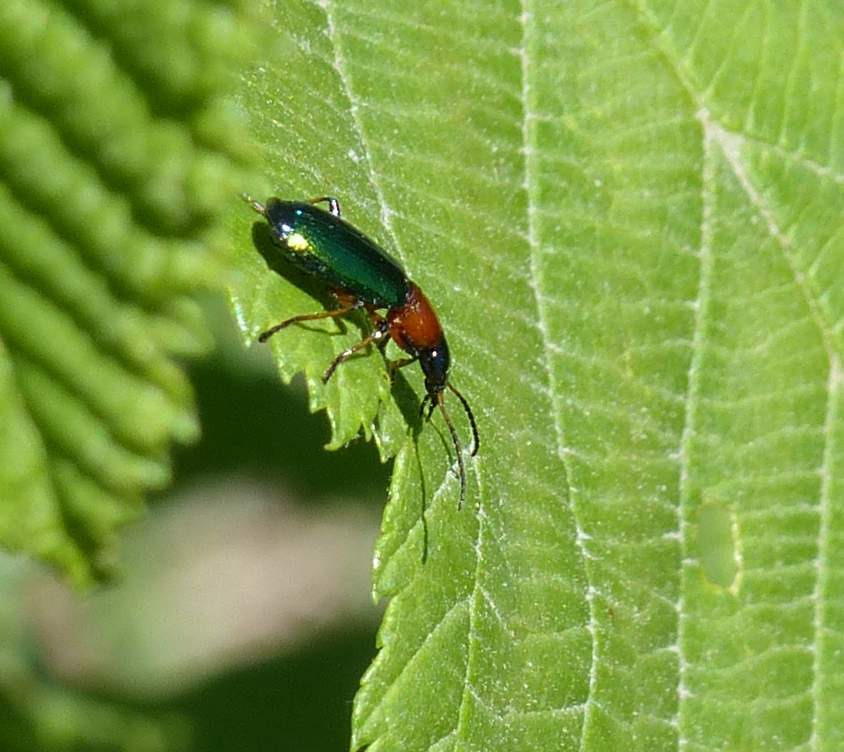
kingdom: Animalia
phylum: Arthropoda
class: Insecta
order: Coleoptera
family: Carabidae
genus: Calleida
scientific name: Calleida punctata
